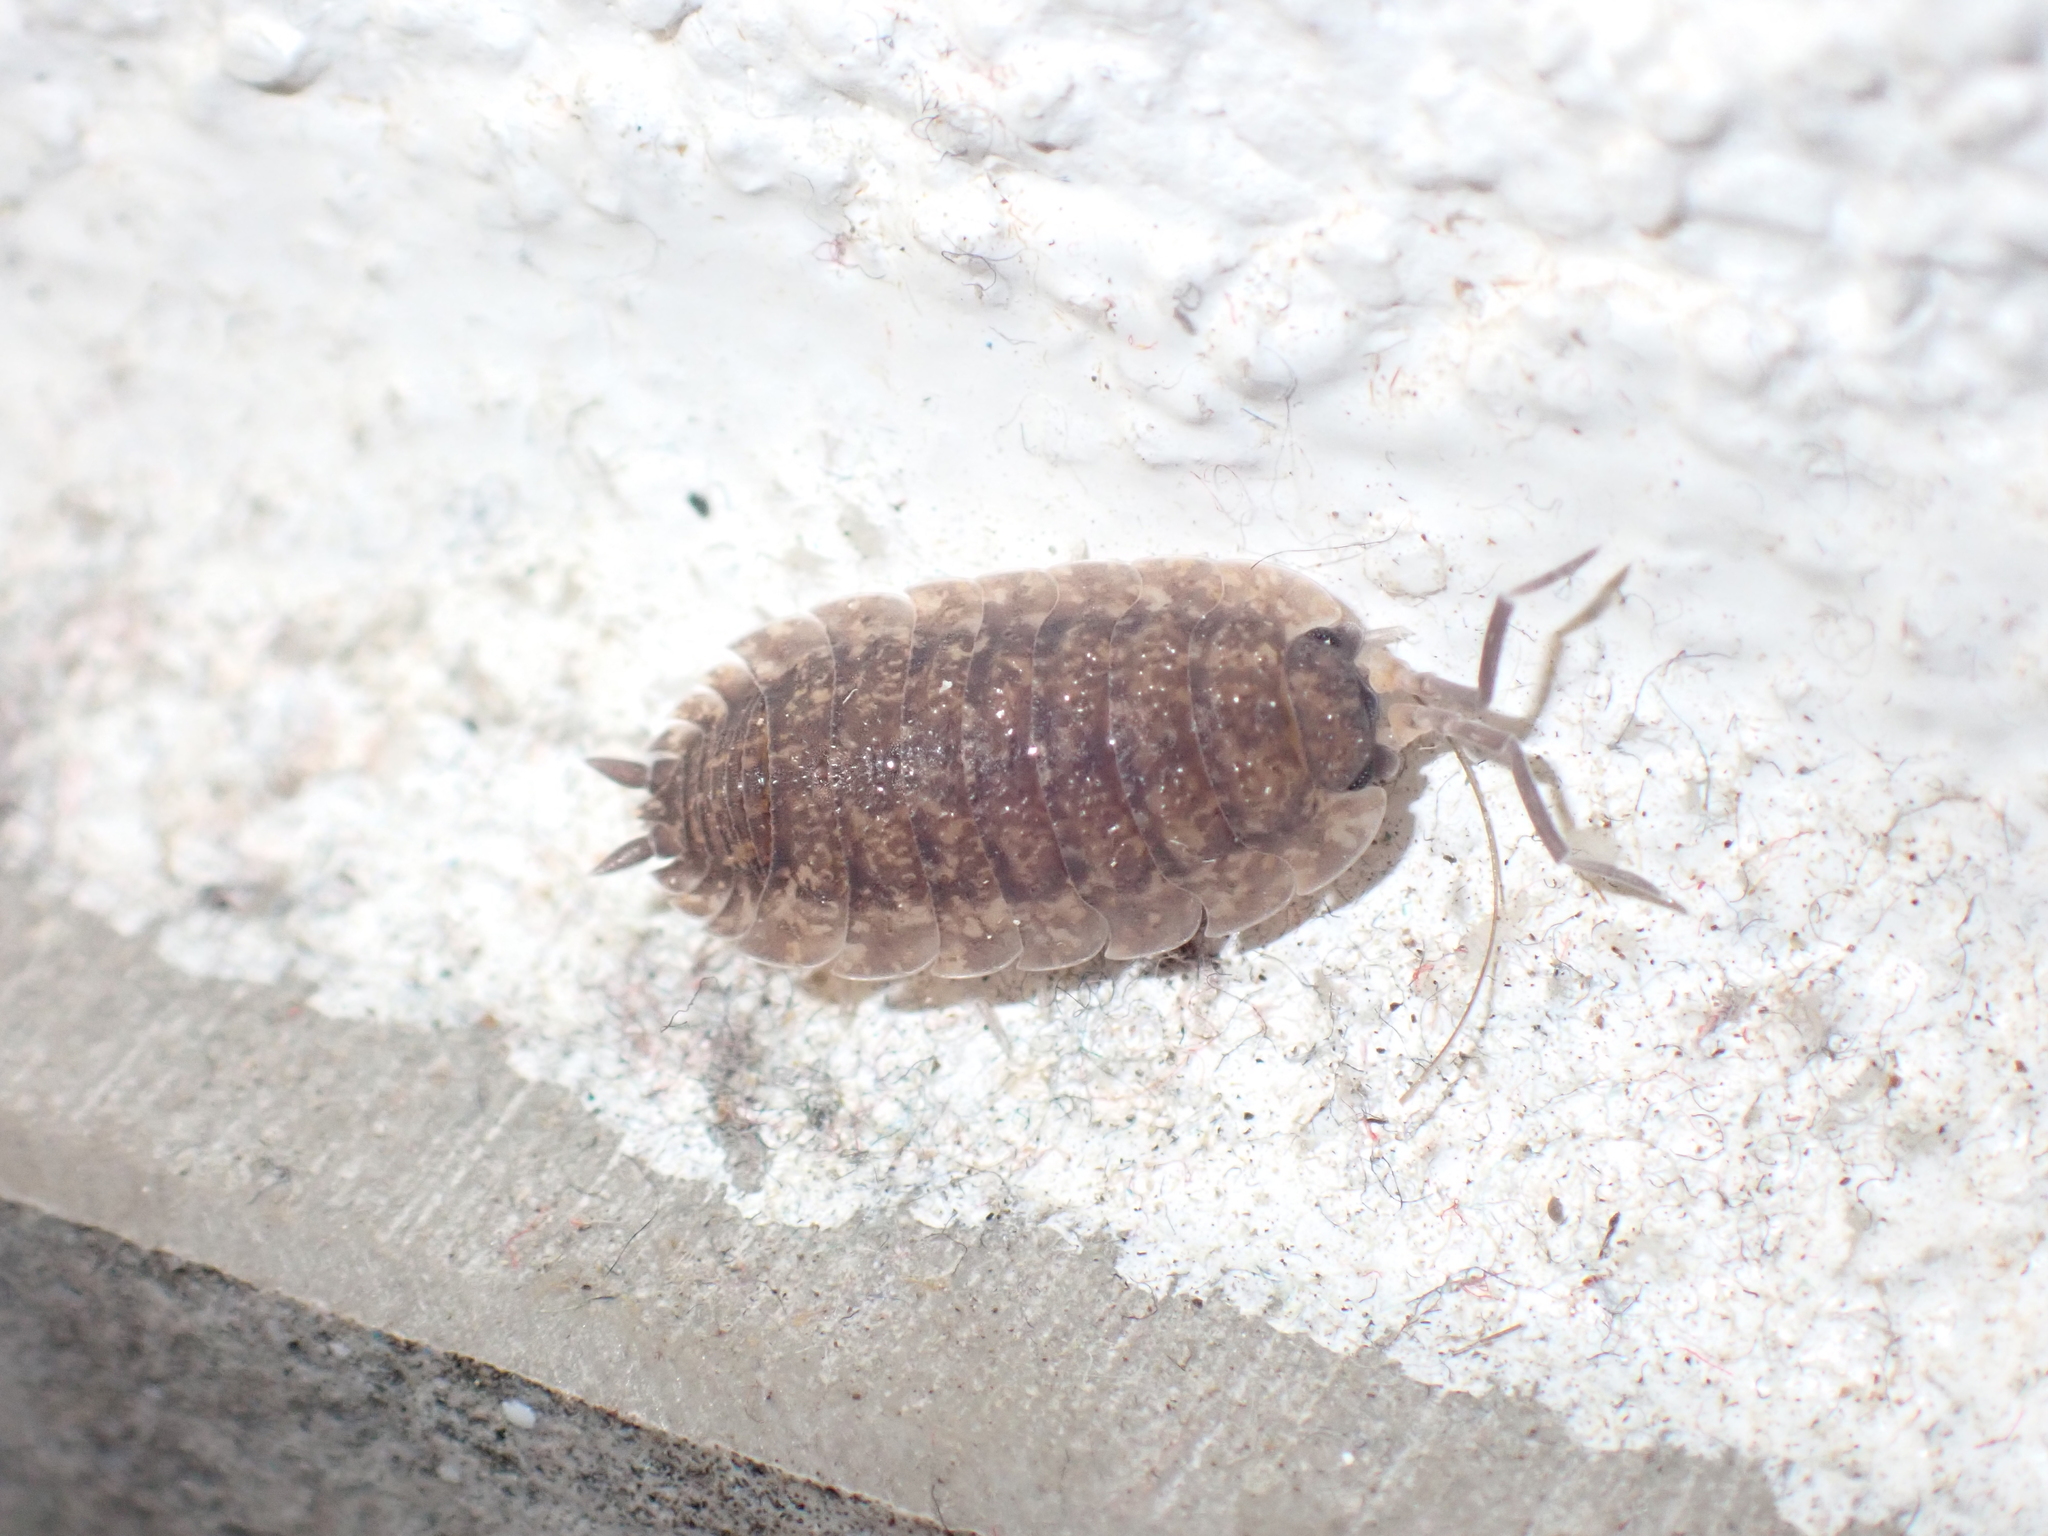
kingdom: Animalia
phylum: Arthropoda
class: Malacostraca
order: Isopoda
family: Porcellionidae
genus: Porcellio
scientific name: Porcellio scaber
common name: Common rough woodlouse
